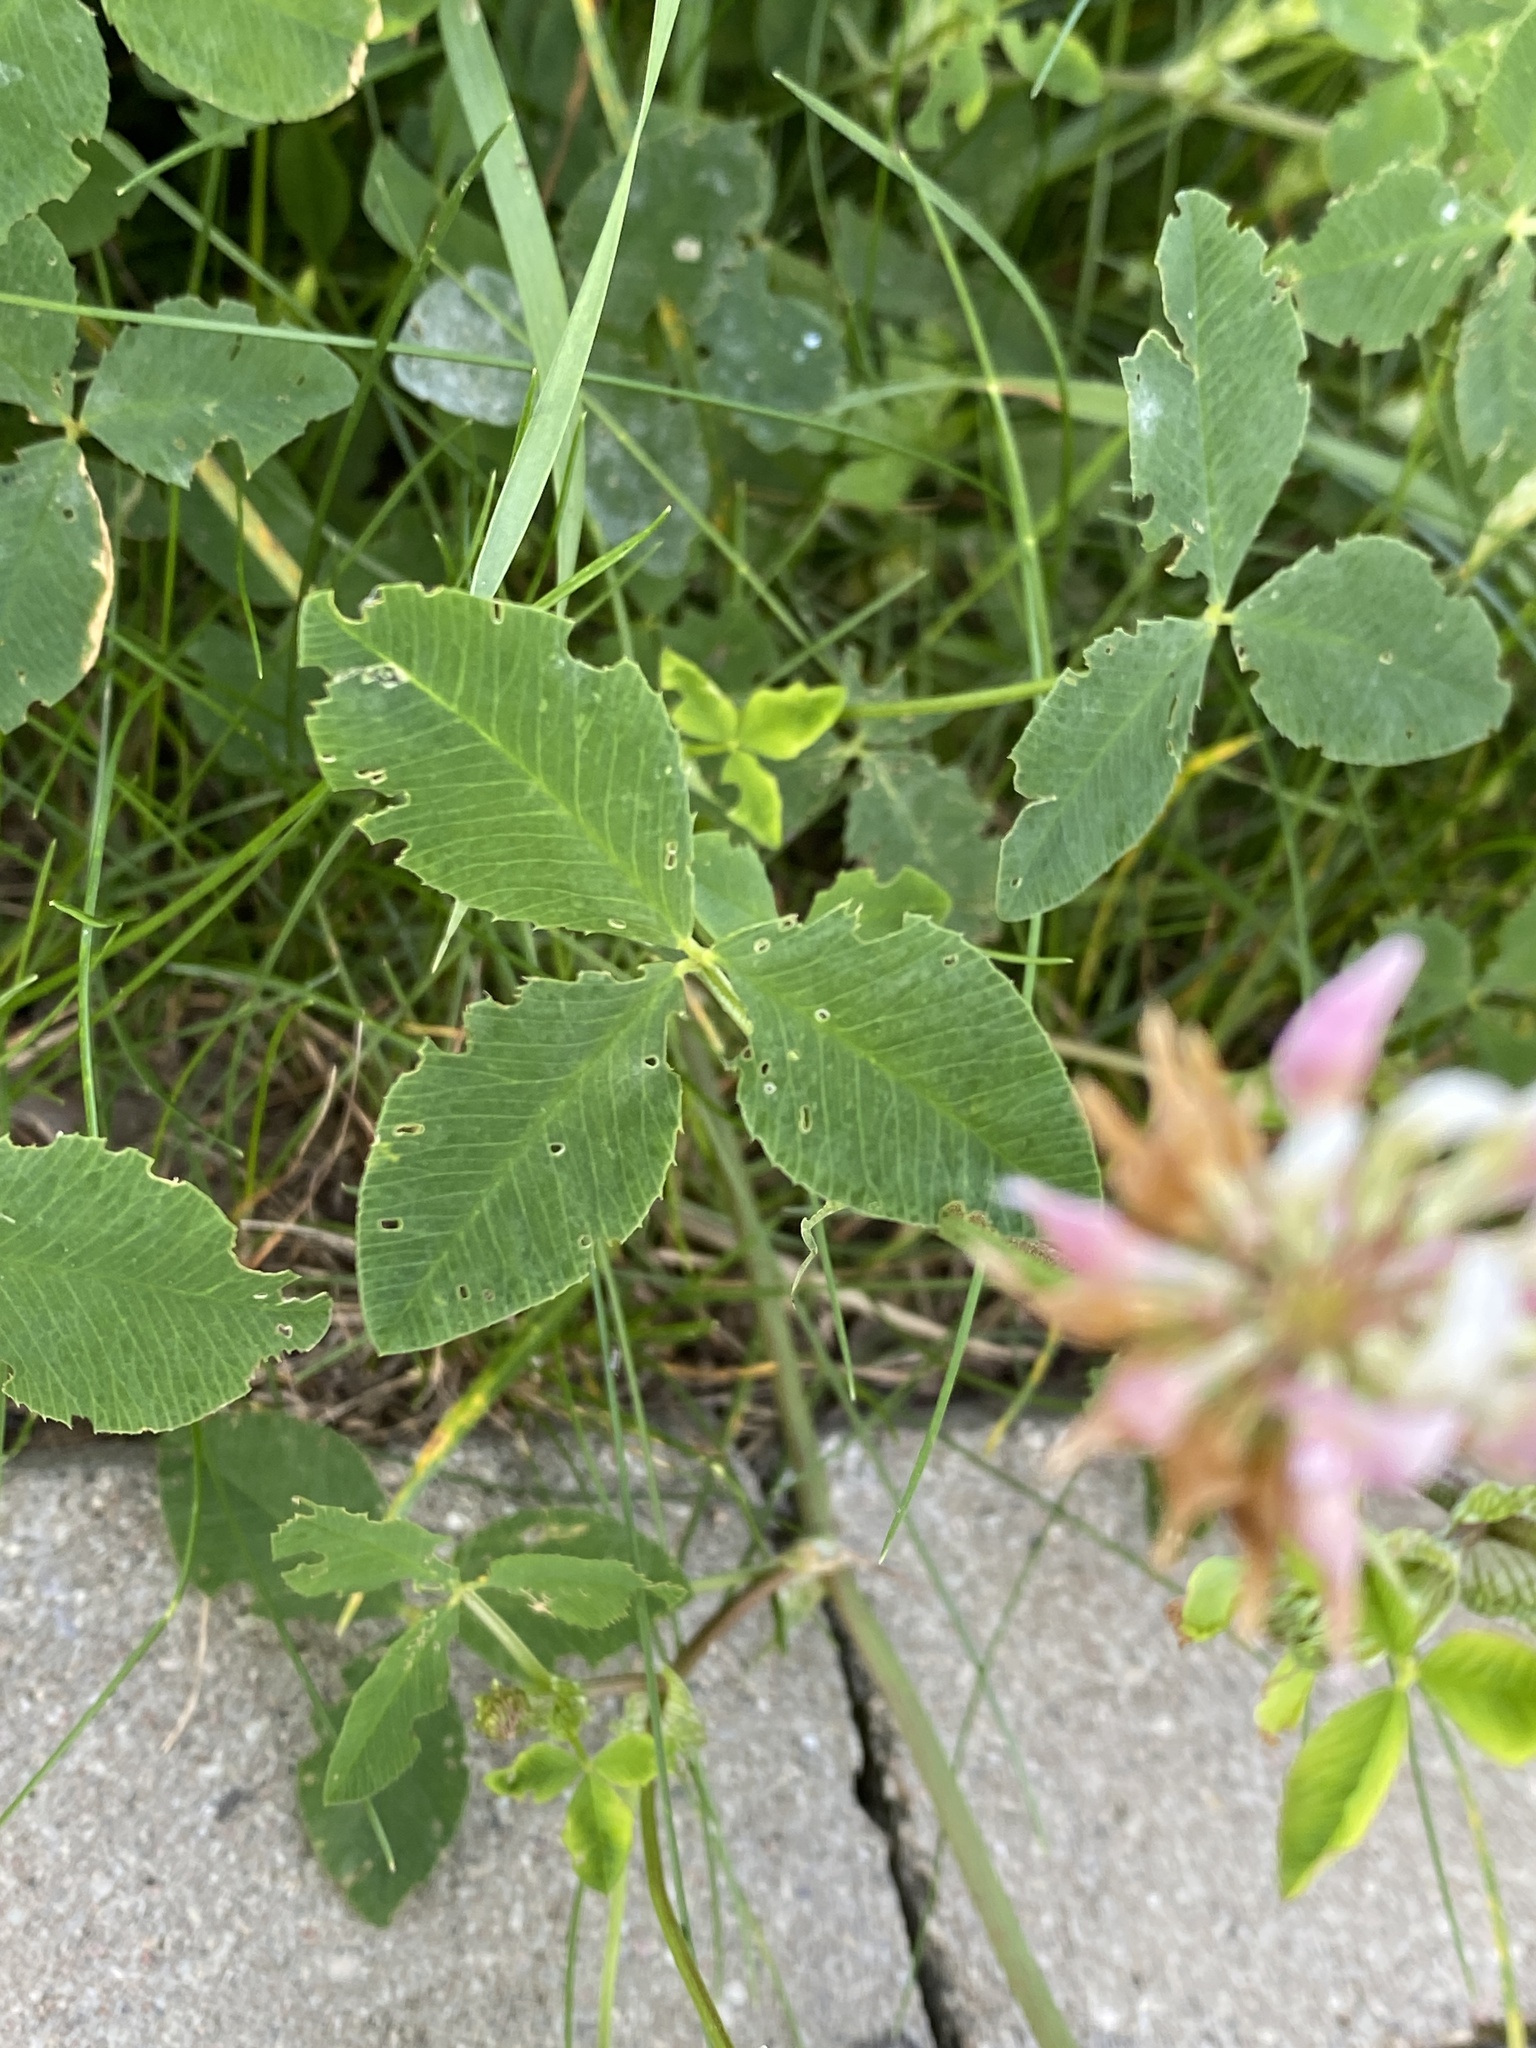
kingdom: Plantae
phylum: Tracheophyta
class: Magnoliopsida
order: Fabales
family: Fabaceae
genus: Trifolium
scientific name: Trifolium hybridum
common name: Alsike clover
